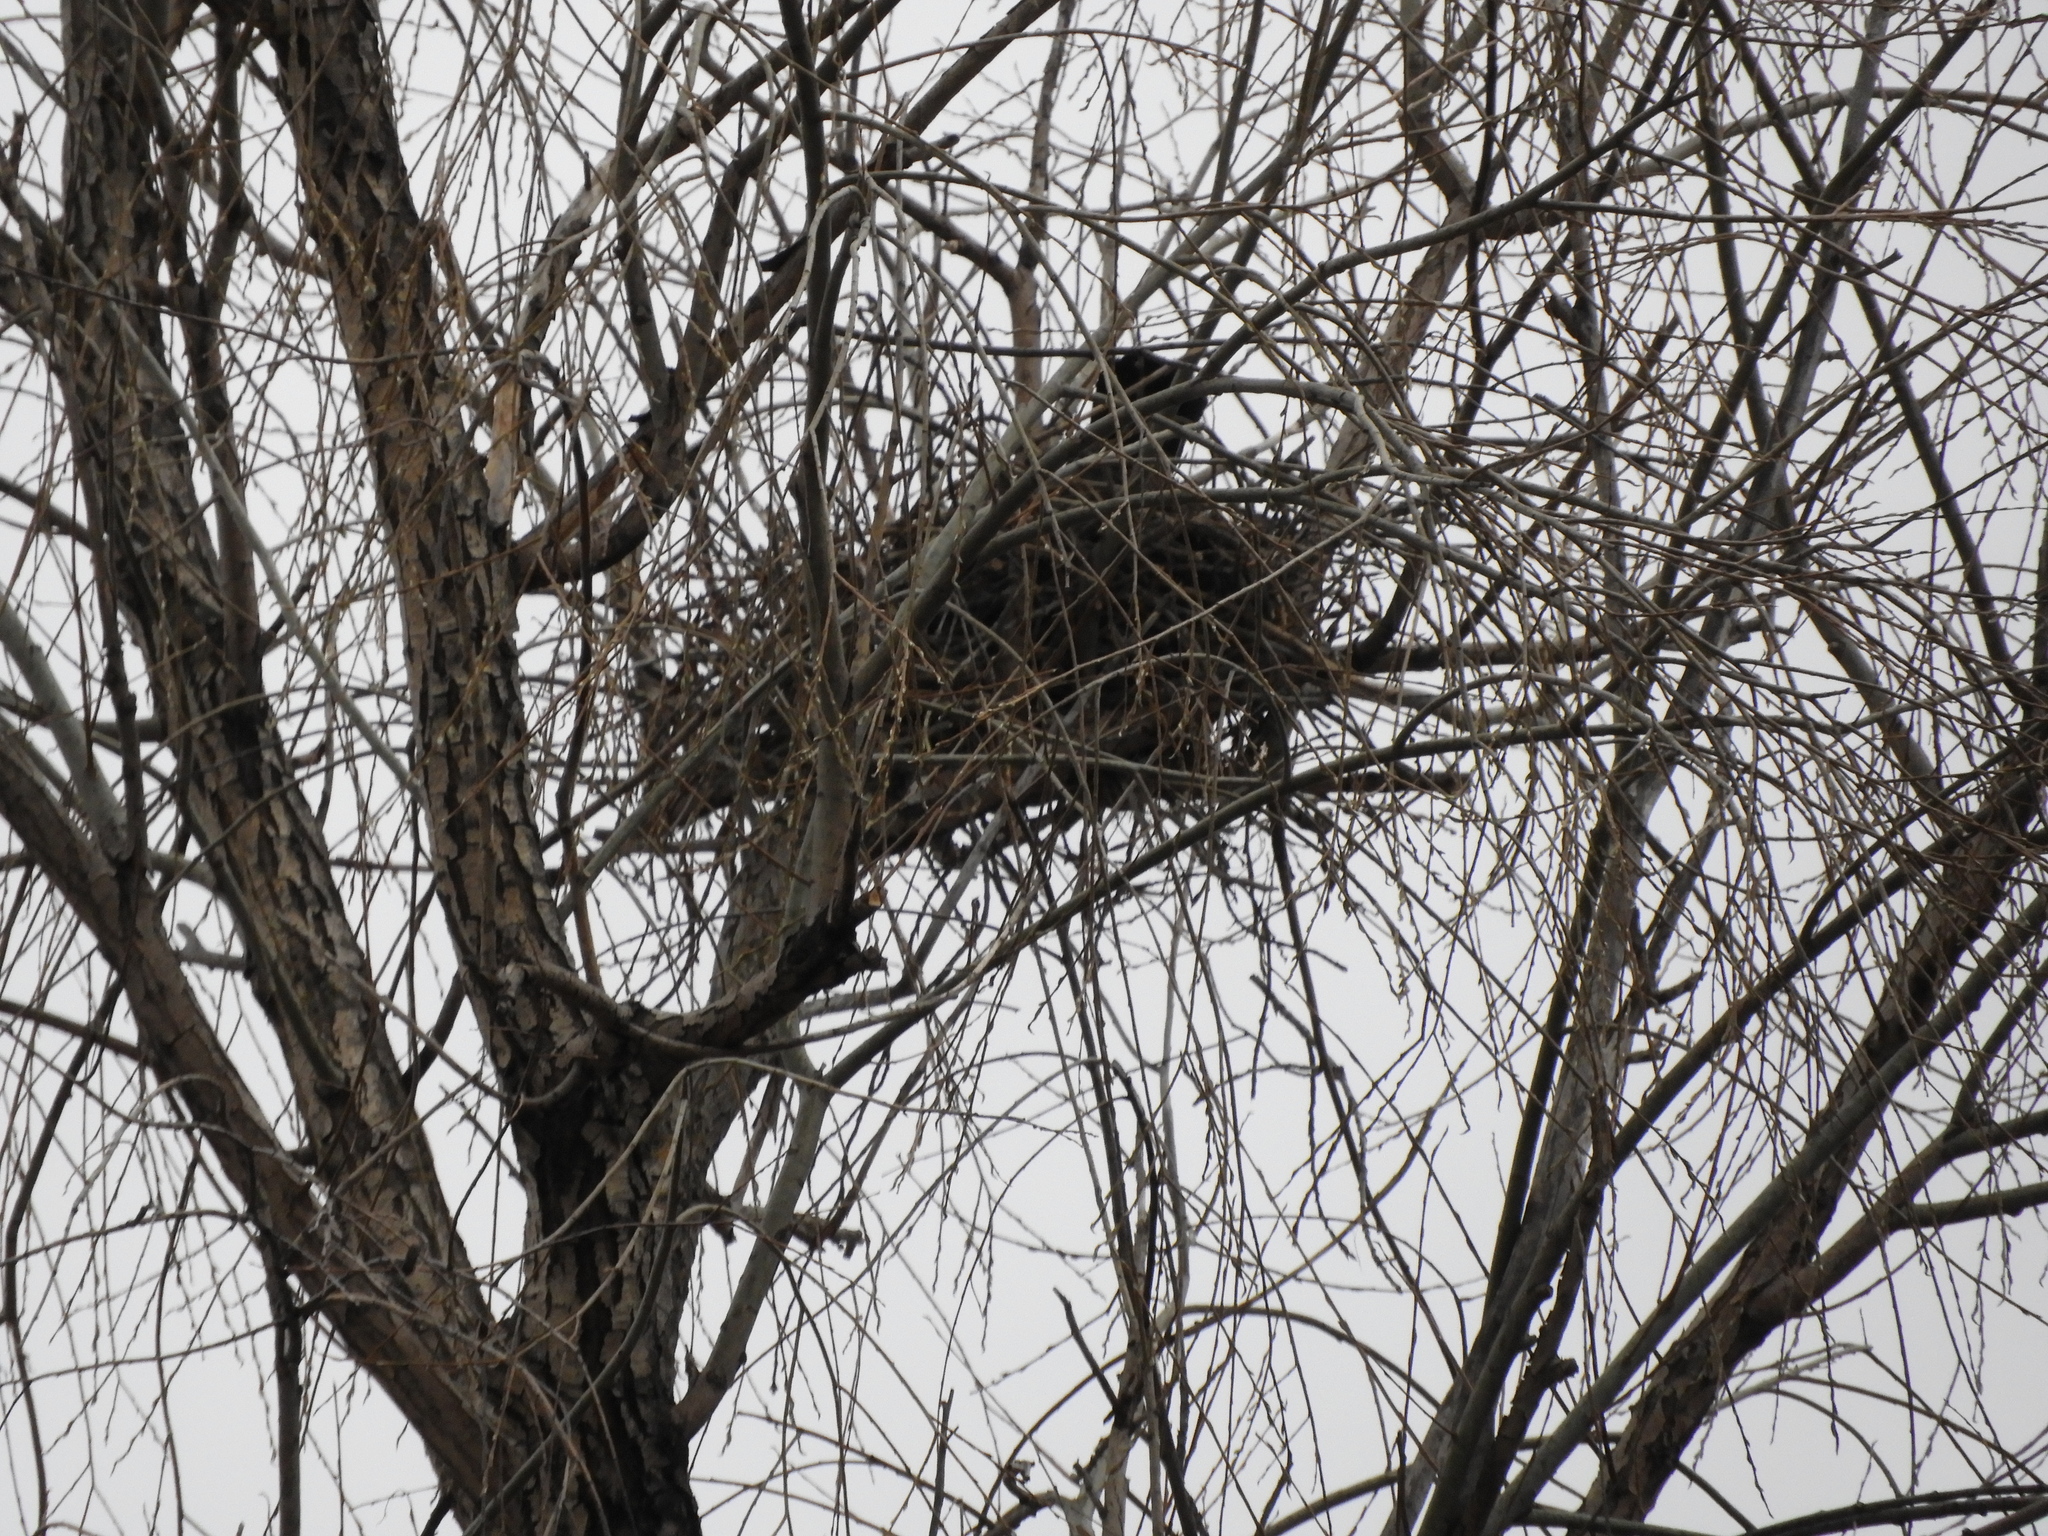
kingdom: Animalia
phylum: Chordata
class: Aves
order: Passeriformes
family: Corvidae
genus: Corvus
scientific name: Corvus cornix
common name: Hooded crow
